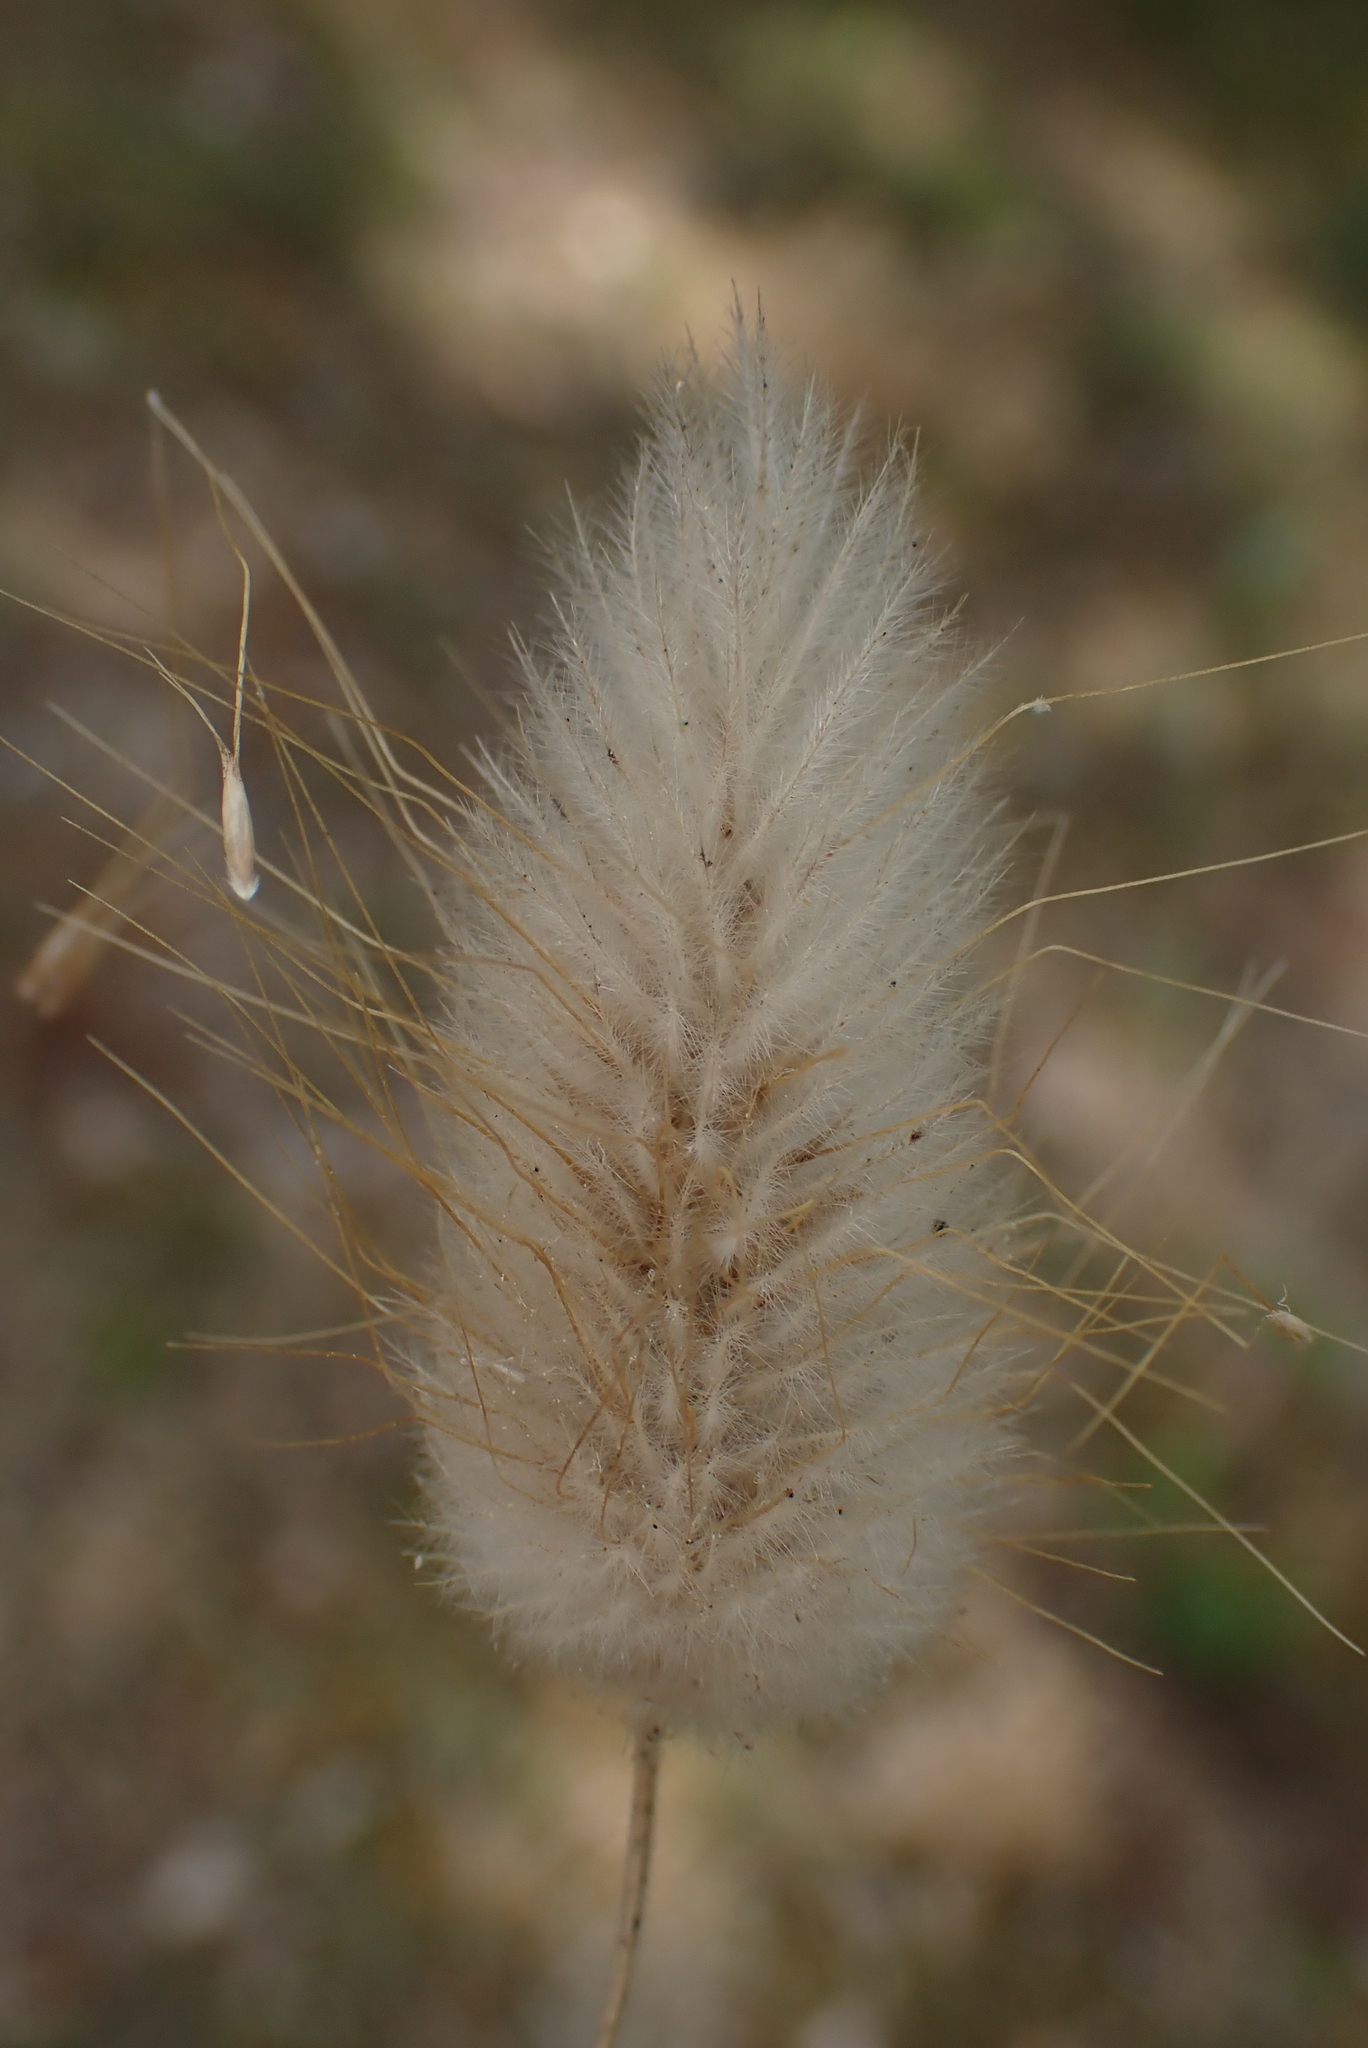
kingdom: Plantae
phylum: Tracheophyta
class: Liliopsida
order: Poales
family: Poaceae
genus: Lagurus
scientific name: Lagurus ovatus
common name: Hare's-tail
